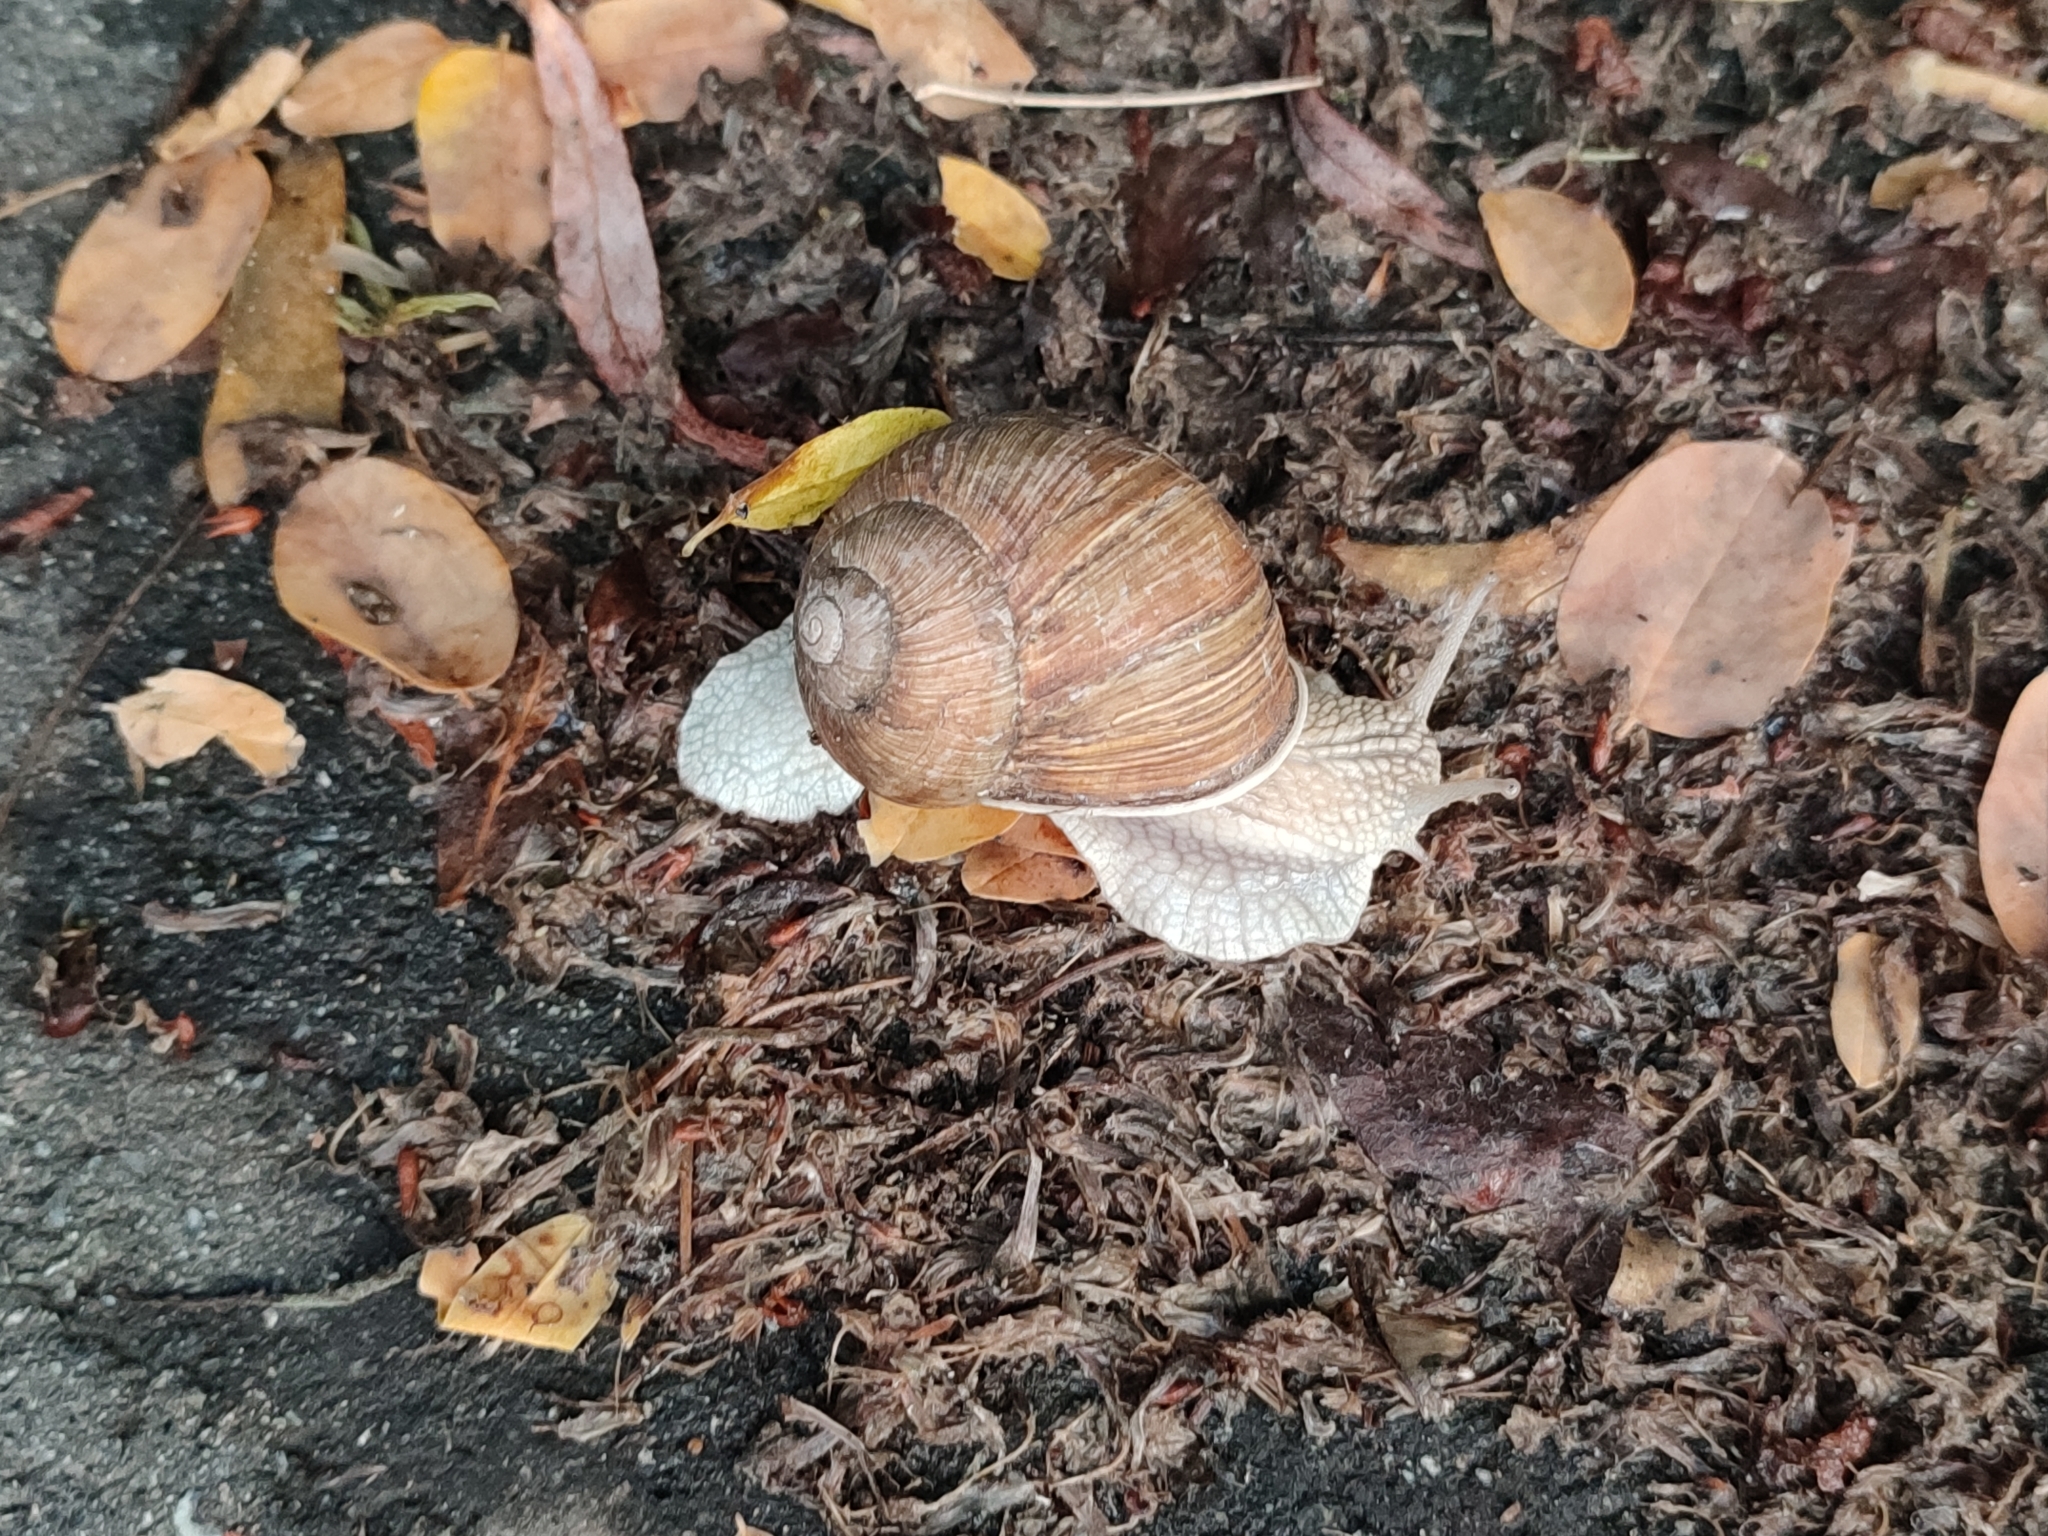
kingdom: Animalia
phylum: Mollusca
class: Gastropoda
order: Stylommatophora
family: Helicidae
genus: Helix
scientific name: Helix pomatia
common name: Roman snail
